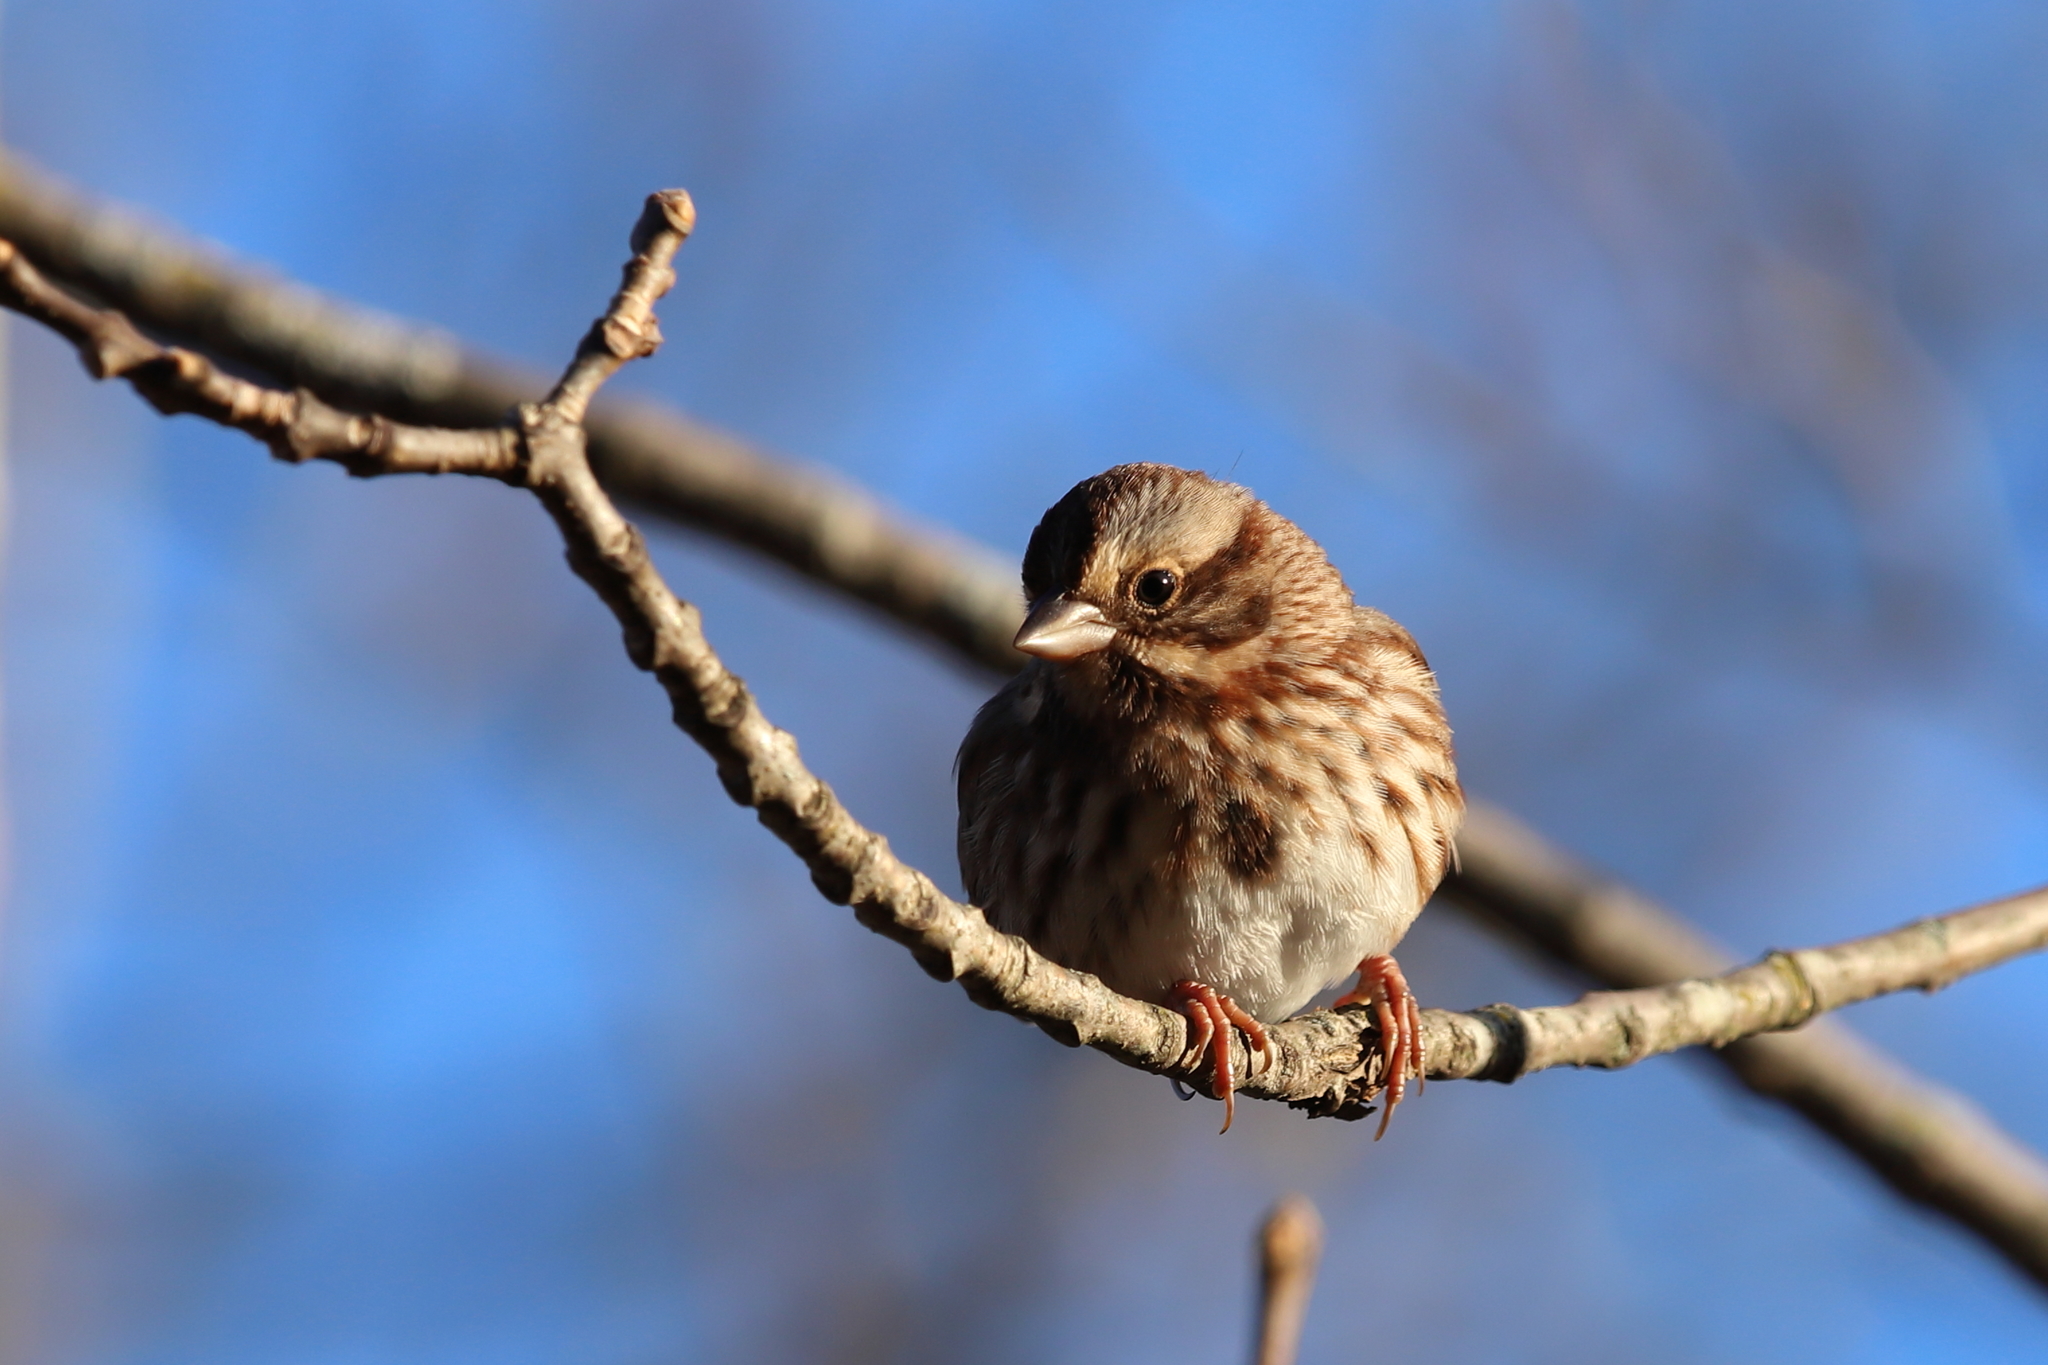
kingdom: Animalia
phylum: Chordata
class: Aves
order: Passeriformes
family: Passerellidae
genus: Melospiza
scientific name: Melospiza melodia
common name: Song sparrow
